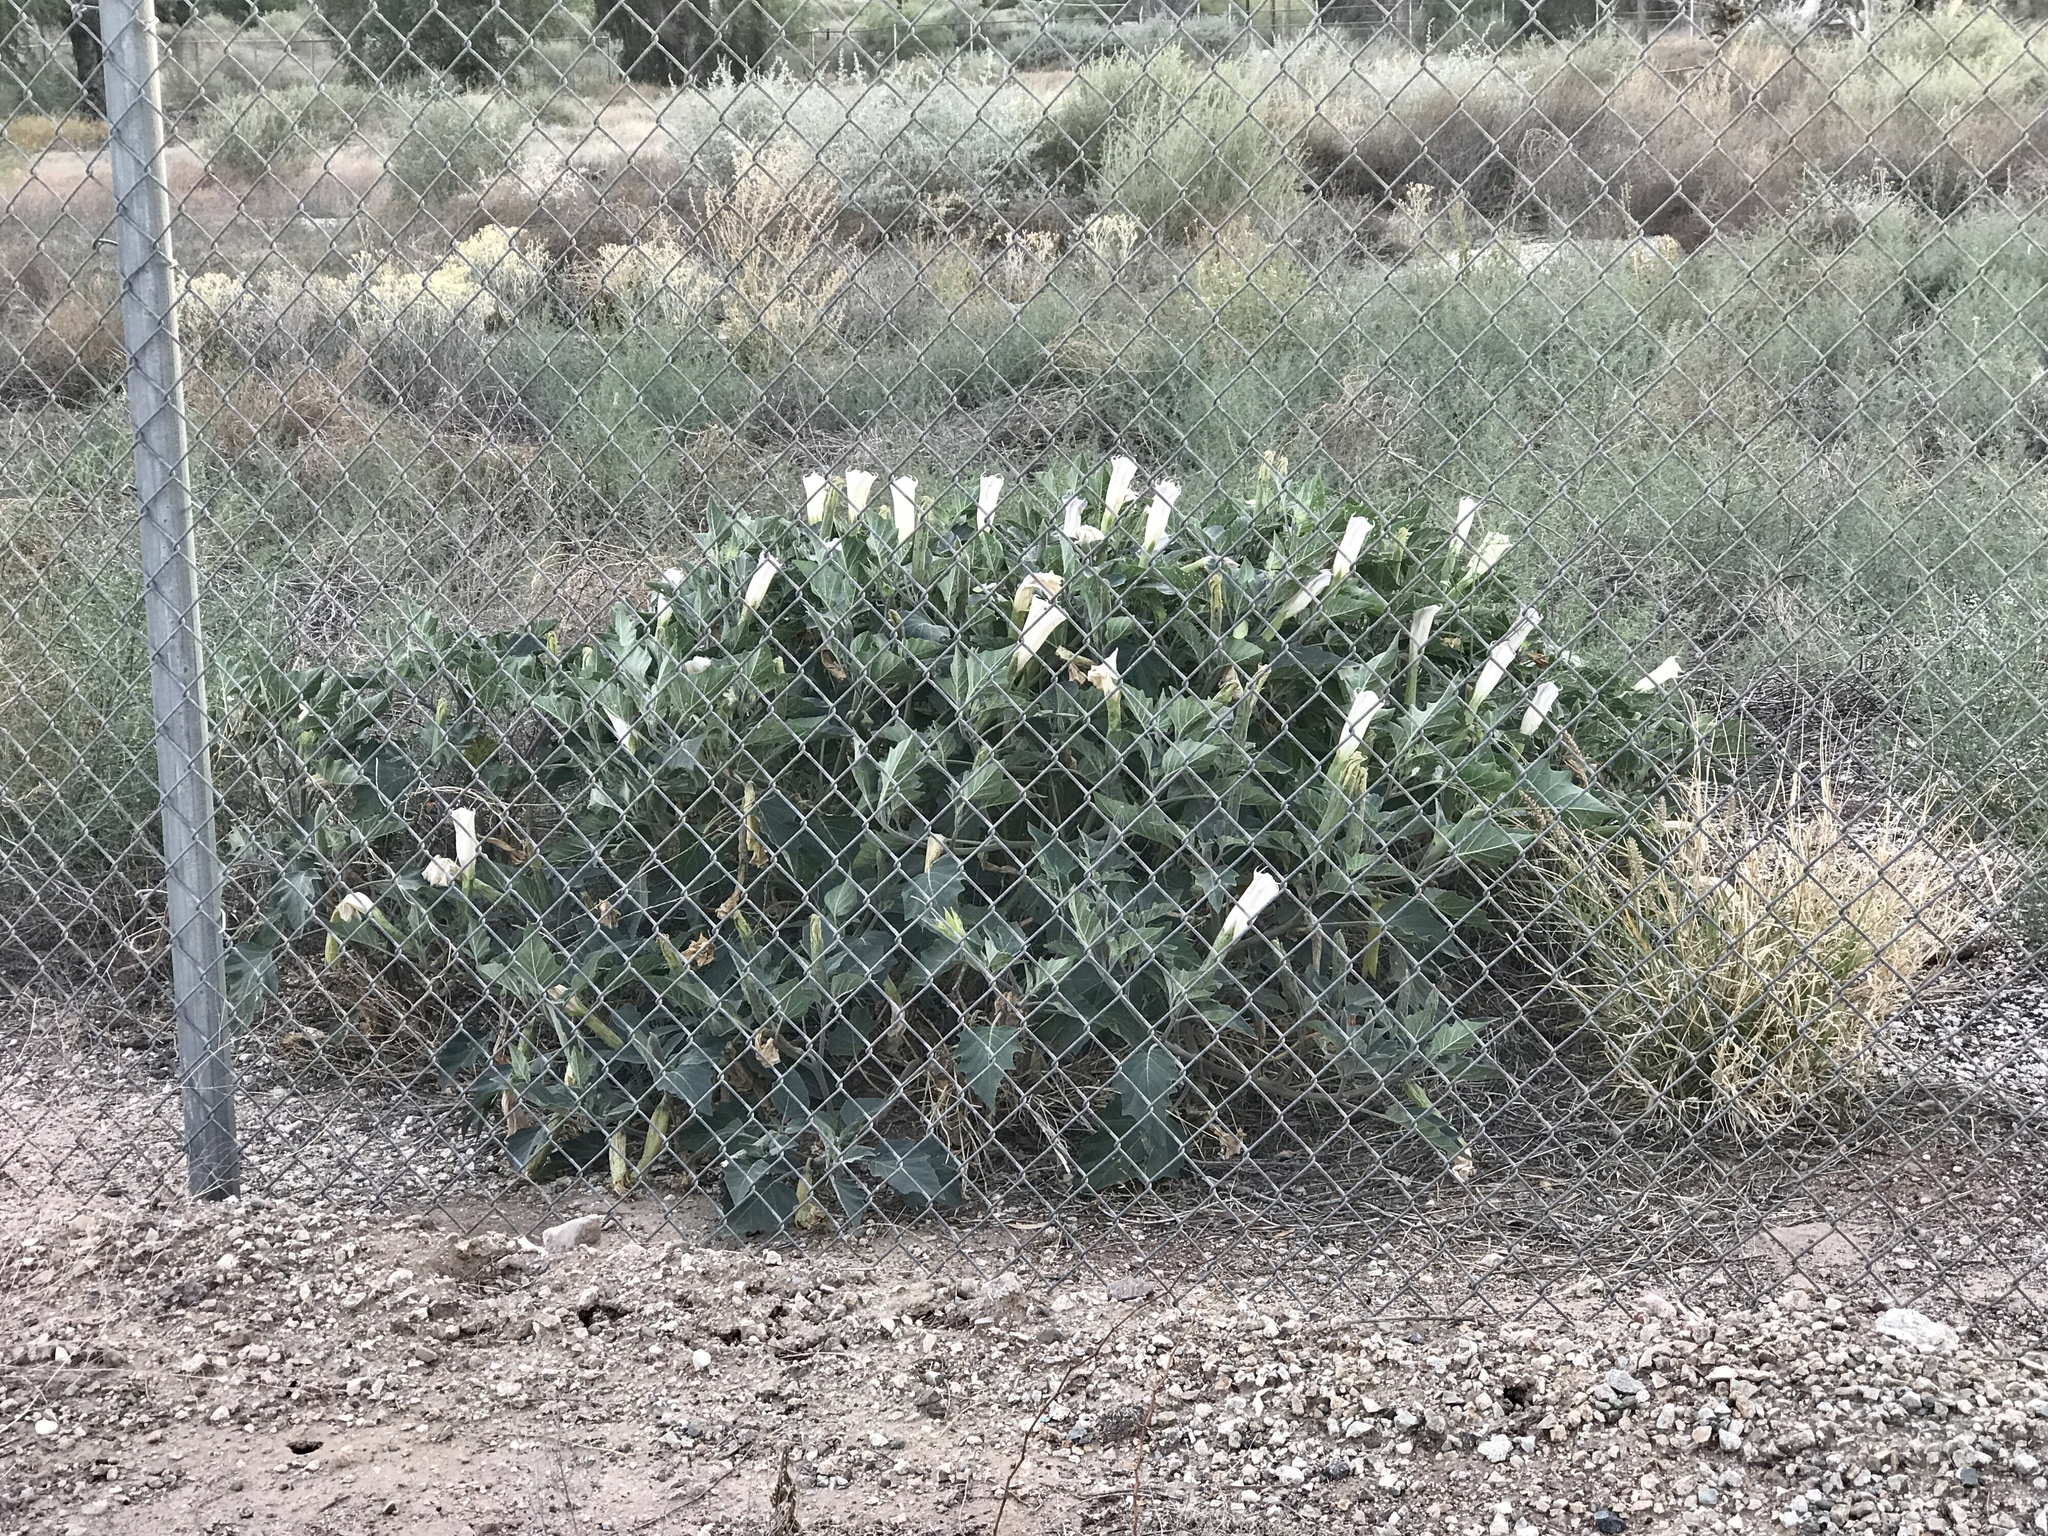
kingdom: Plantae
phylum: Tracheophyta
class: Magnoliopsida
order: Solanales
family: Solanaceae
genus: Datura
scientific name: Datura wrightii
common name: Sacred thorn-apple
